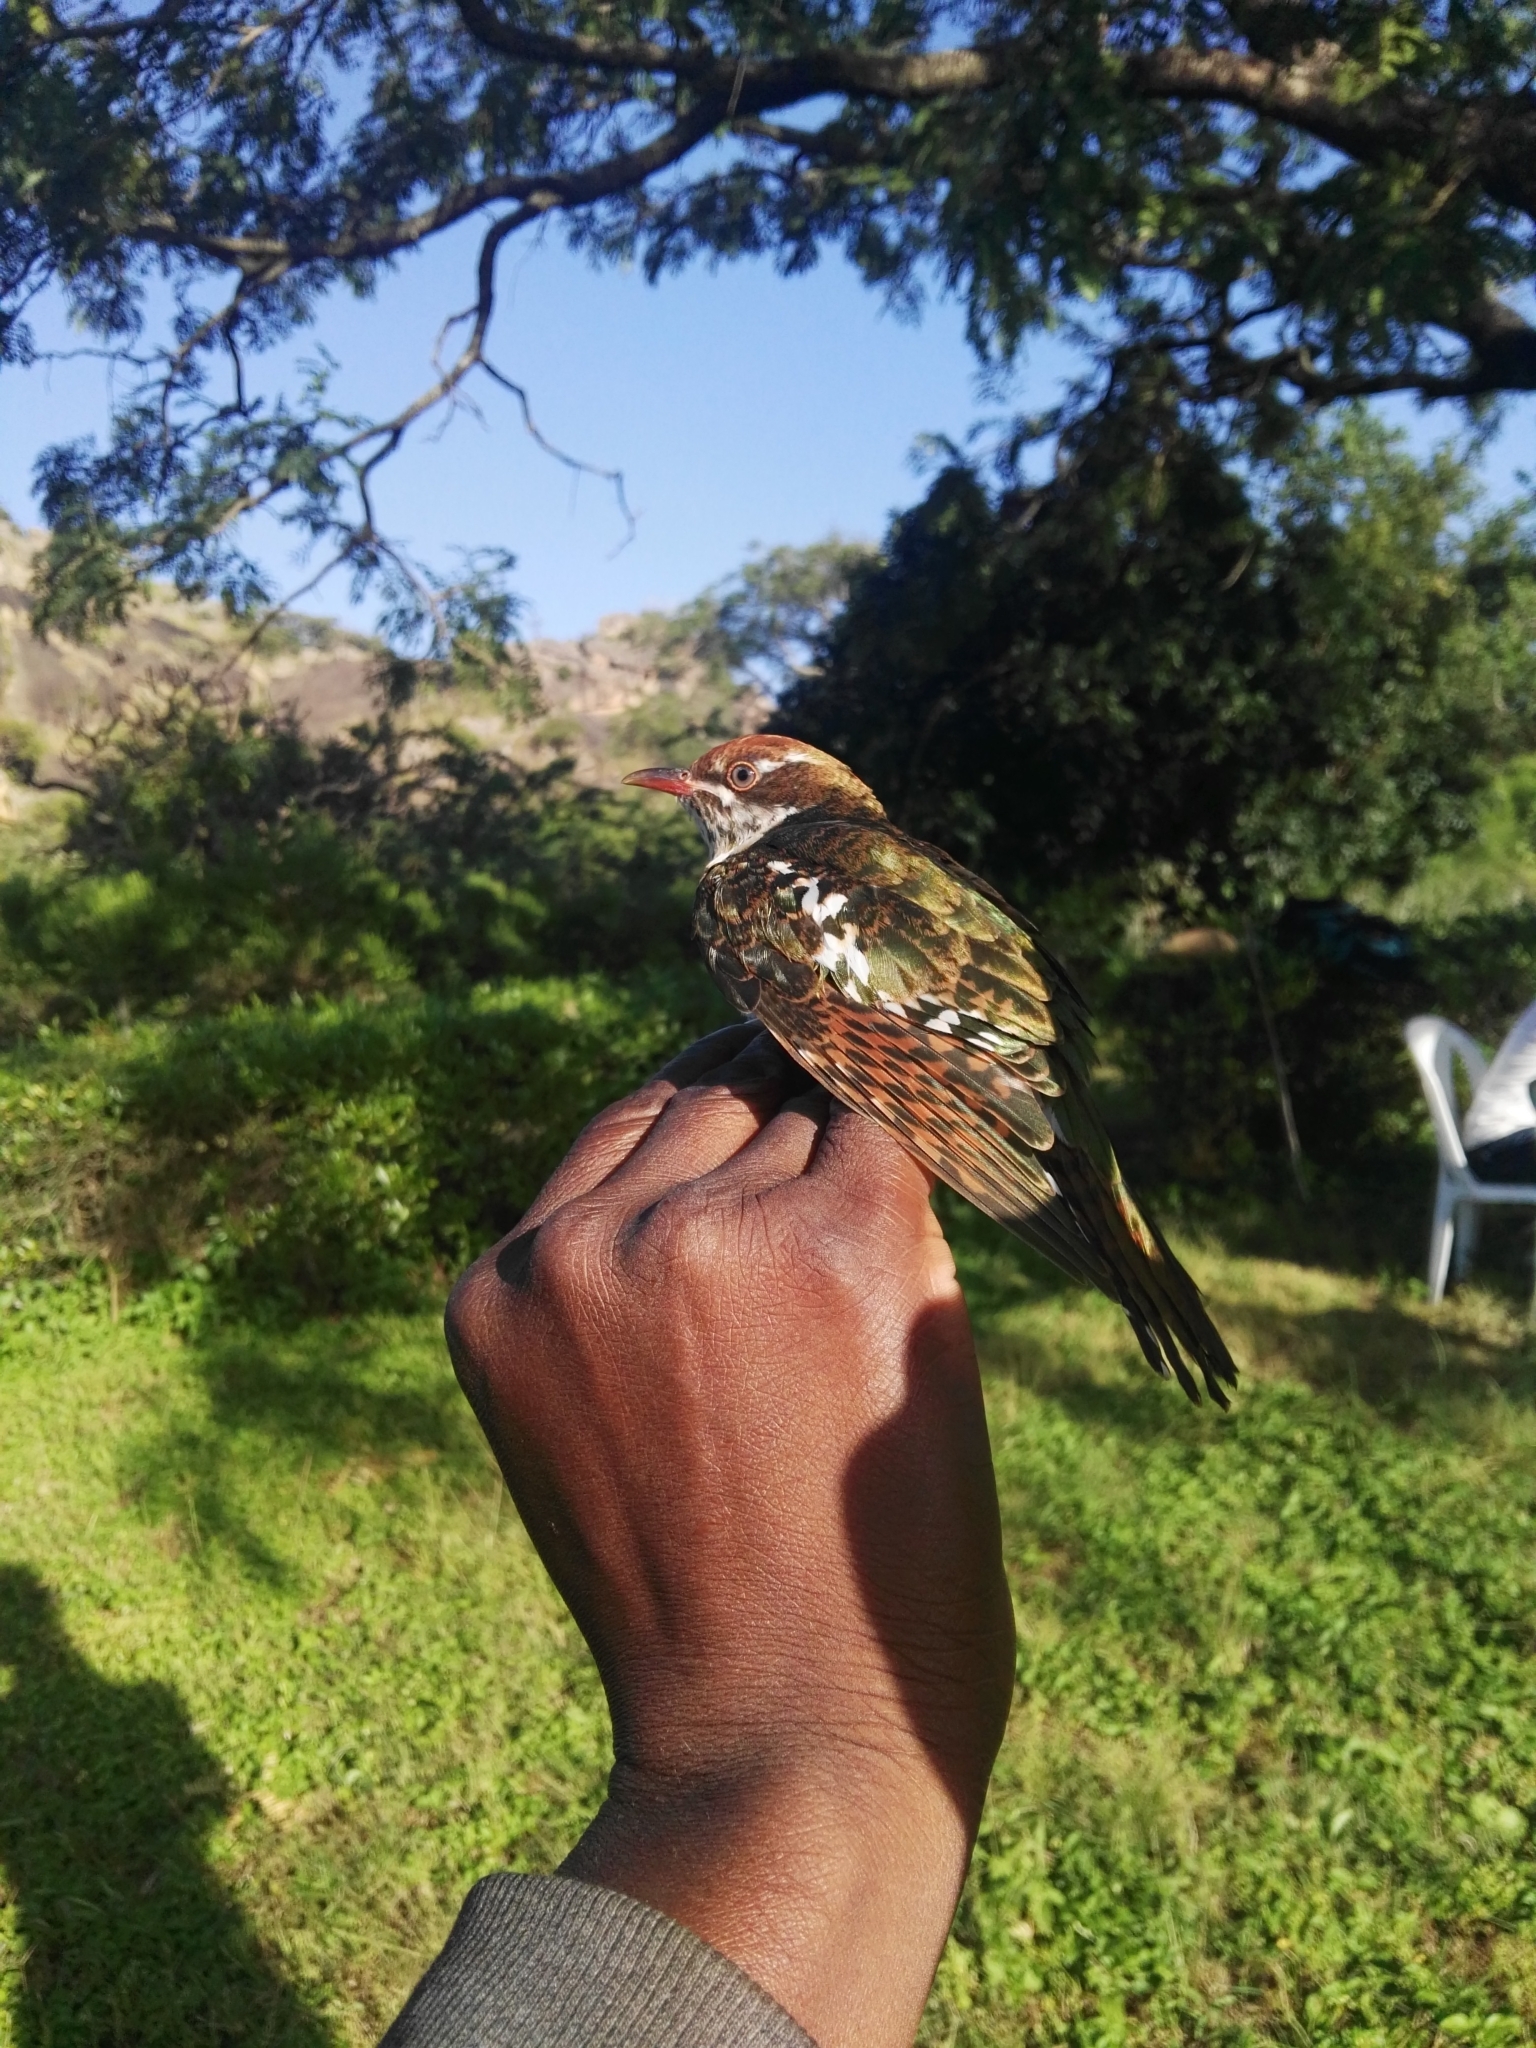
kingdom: Animalia
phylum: Chordata
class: Aves
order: Cuculiformes
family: Cuculidae
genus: Chrysococcyx
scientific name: Chrysococcyx caprius
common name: Diederik cuckoo
